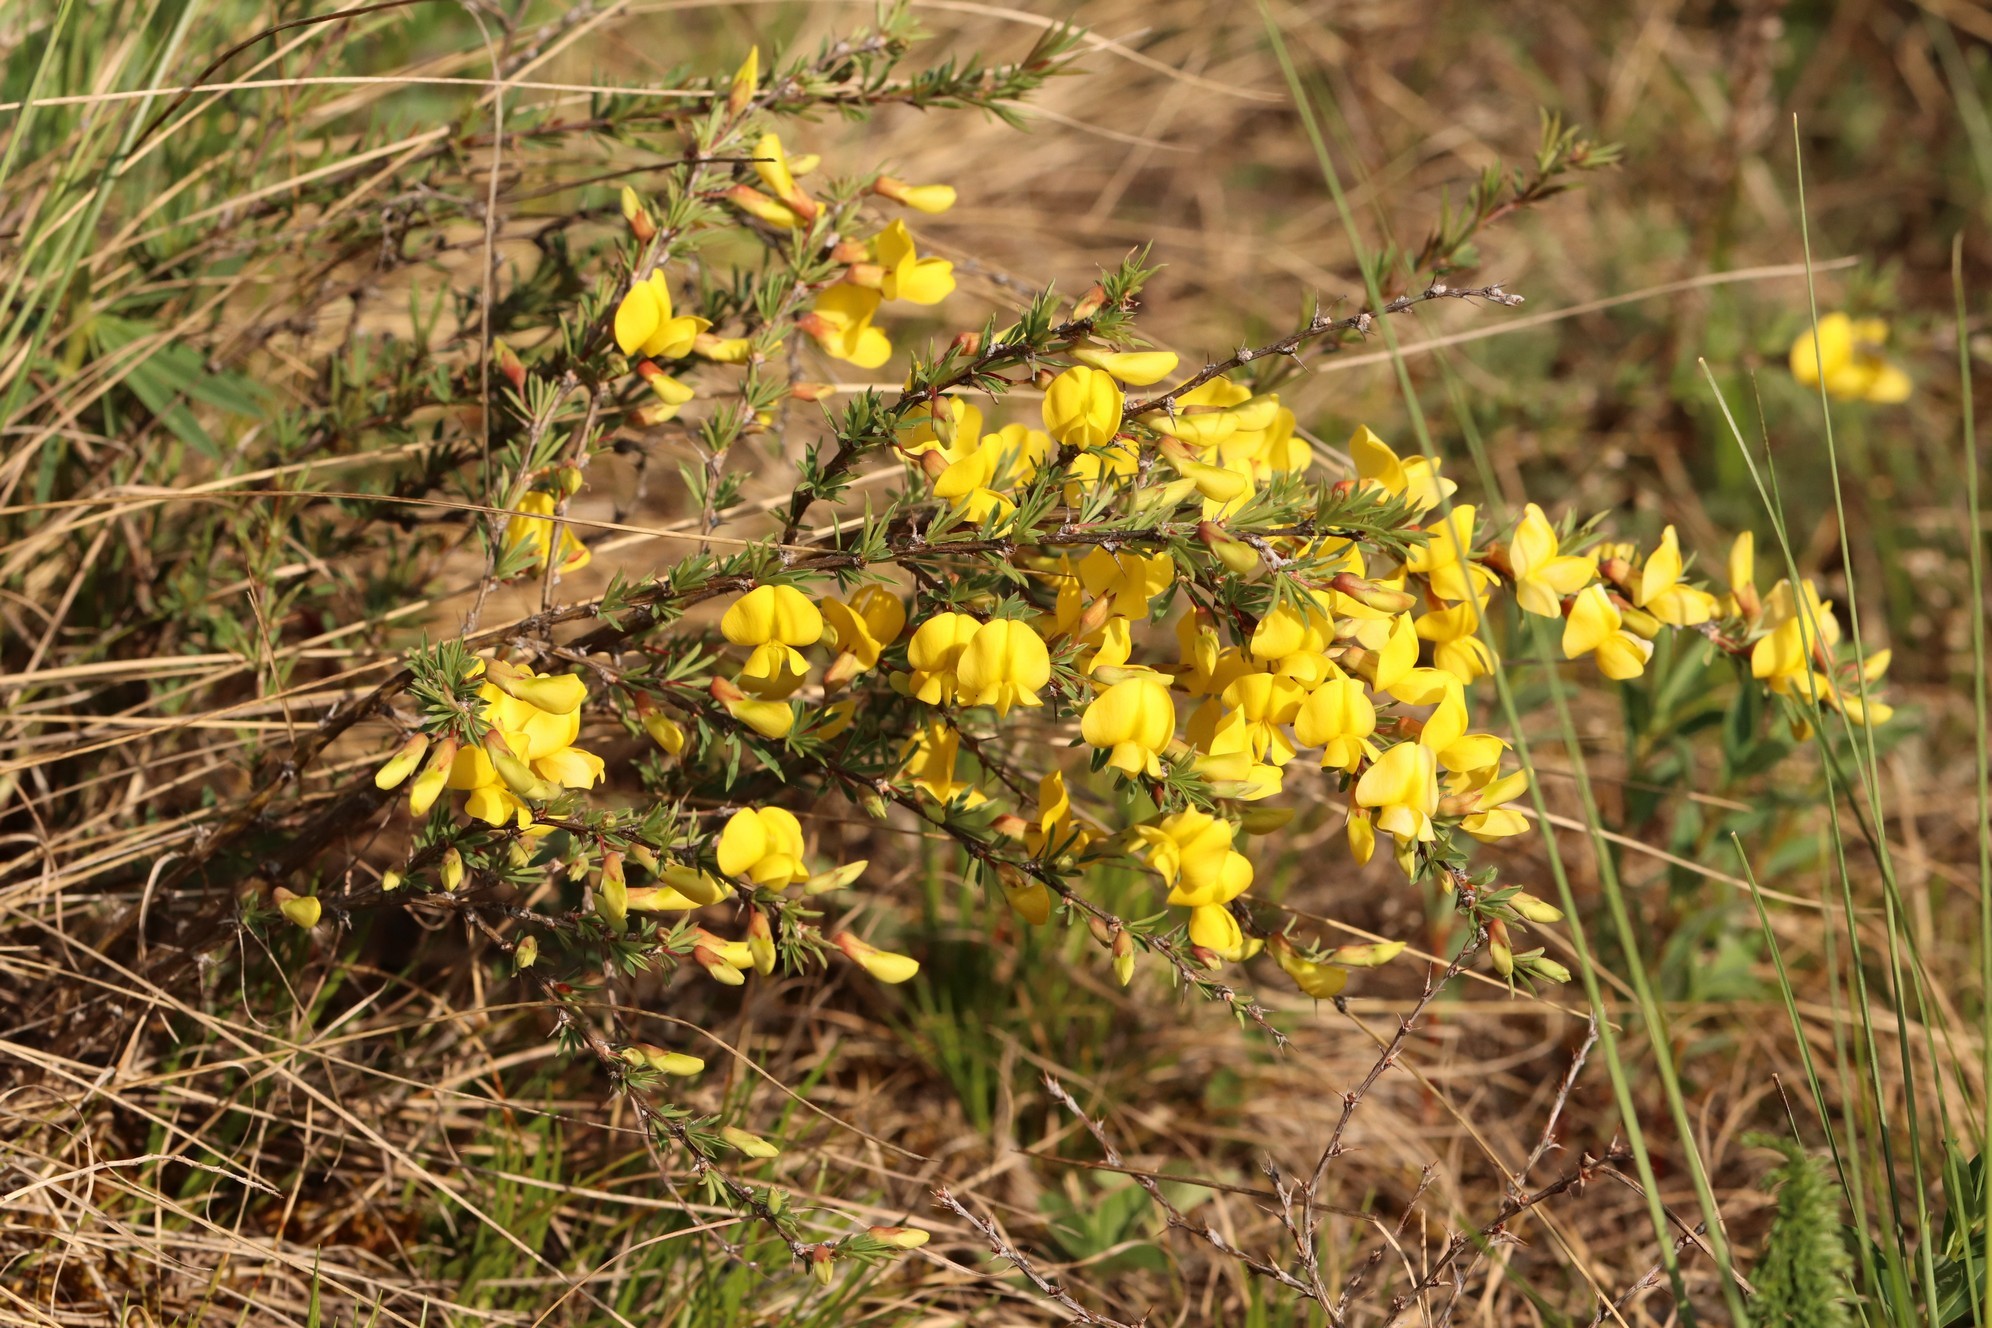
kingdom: Plantae
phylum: Tracheophyta
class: Magnoliopsida
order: Fabales
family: Fabaceae
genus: Caragana
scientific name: Caragana pygmaea
